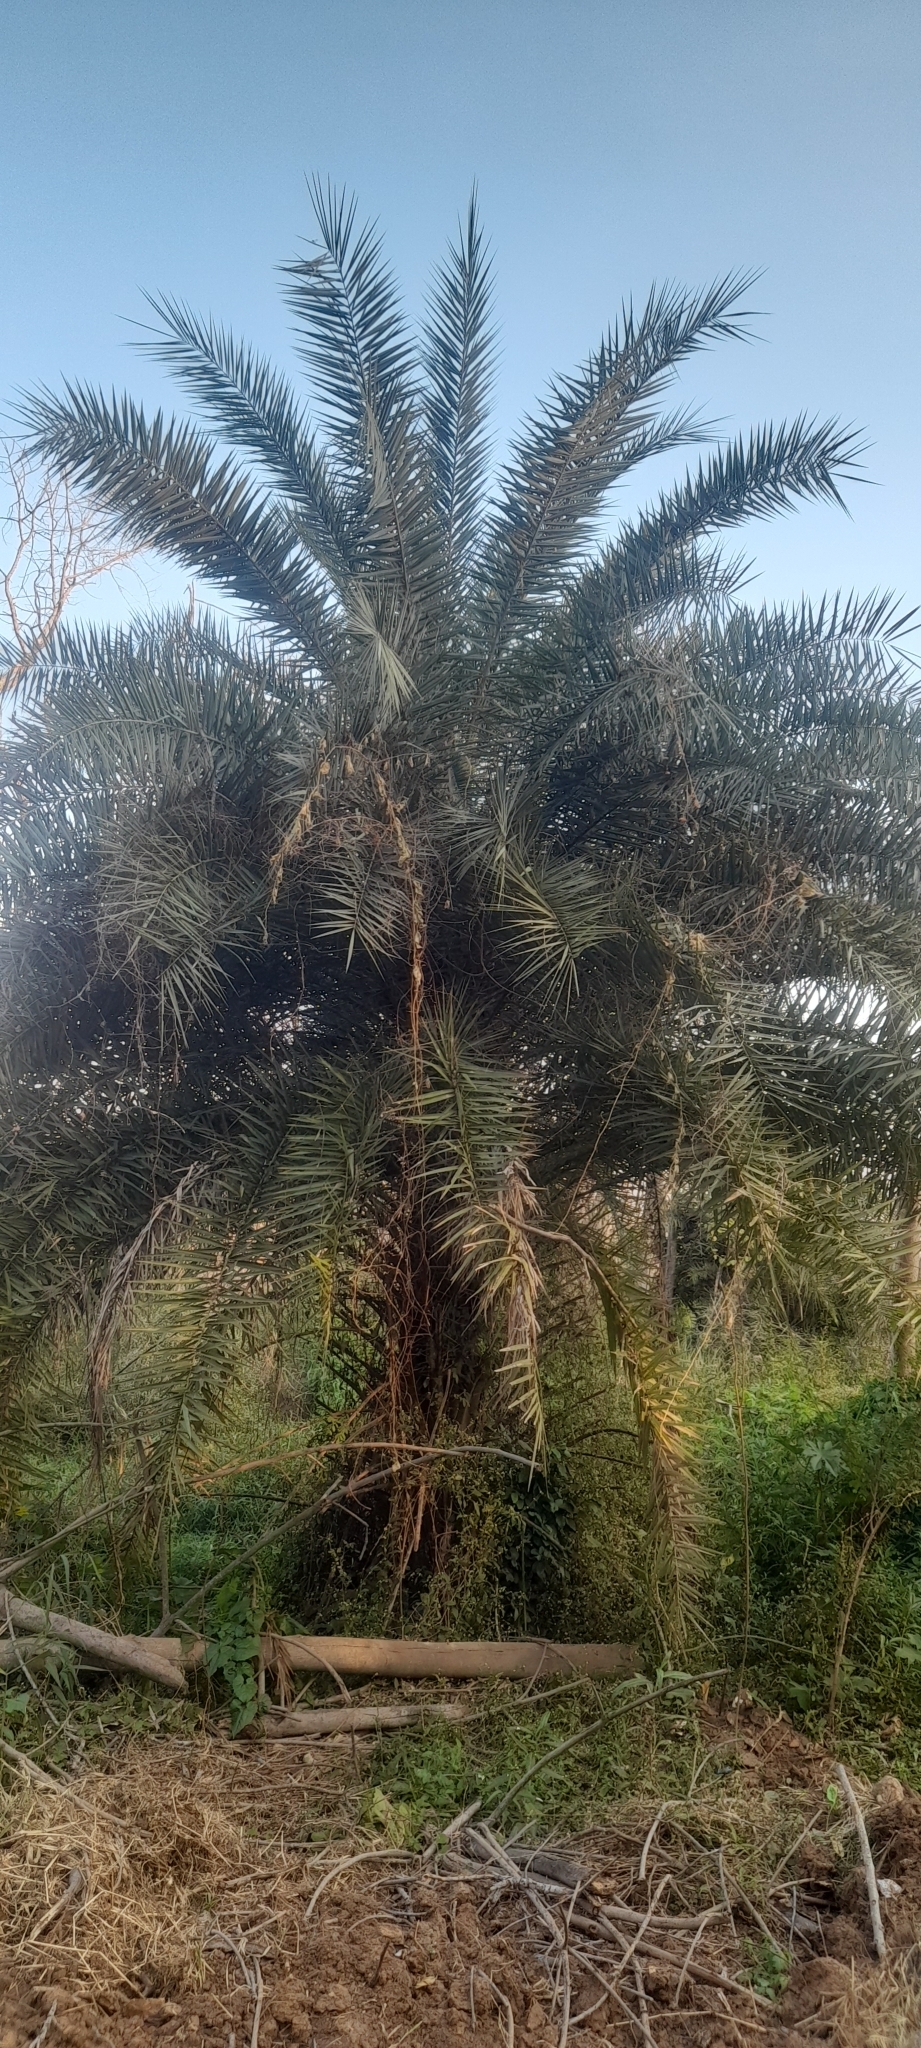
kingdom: Plantae
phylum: Tracheophyta
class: Liliopsida
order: Arecales
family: Arecaceae
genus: Phoenix
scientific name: Phoenix sylvestris
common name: Wild date palm
